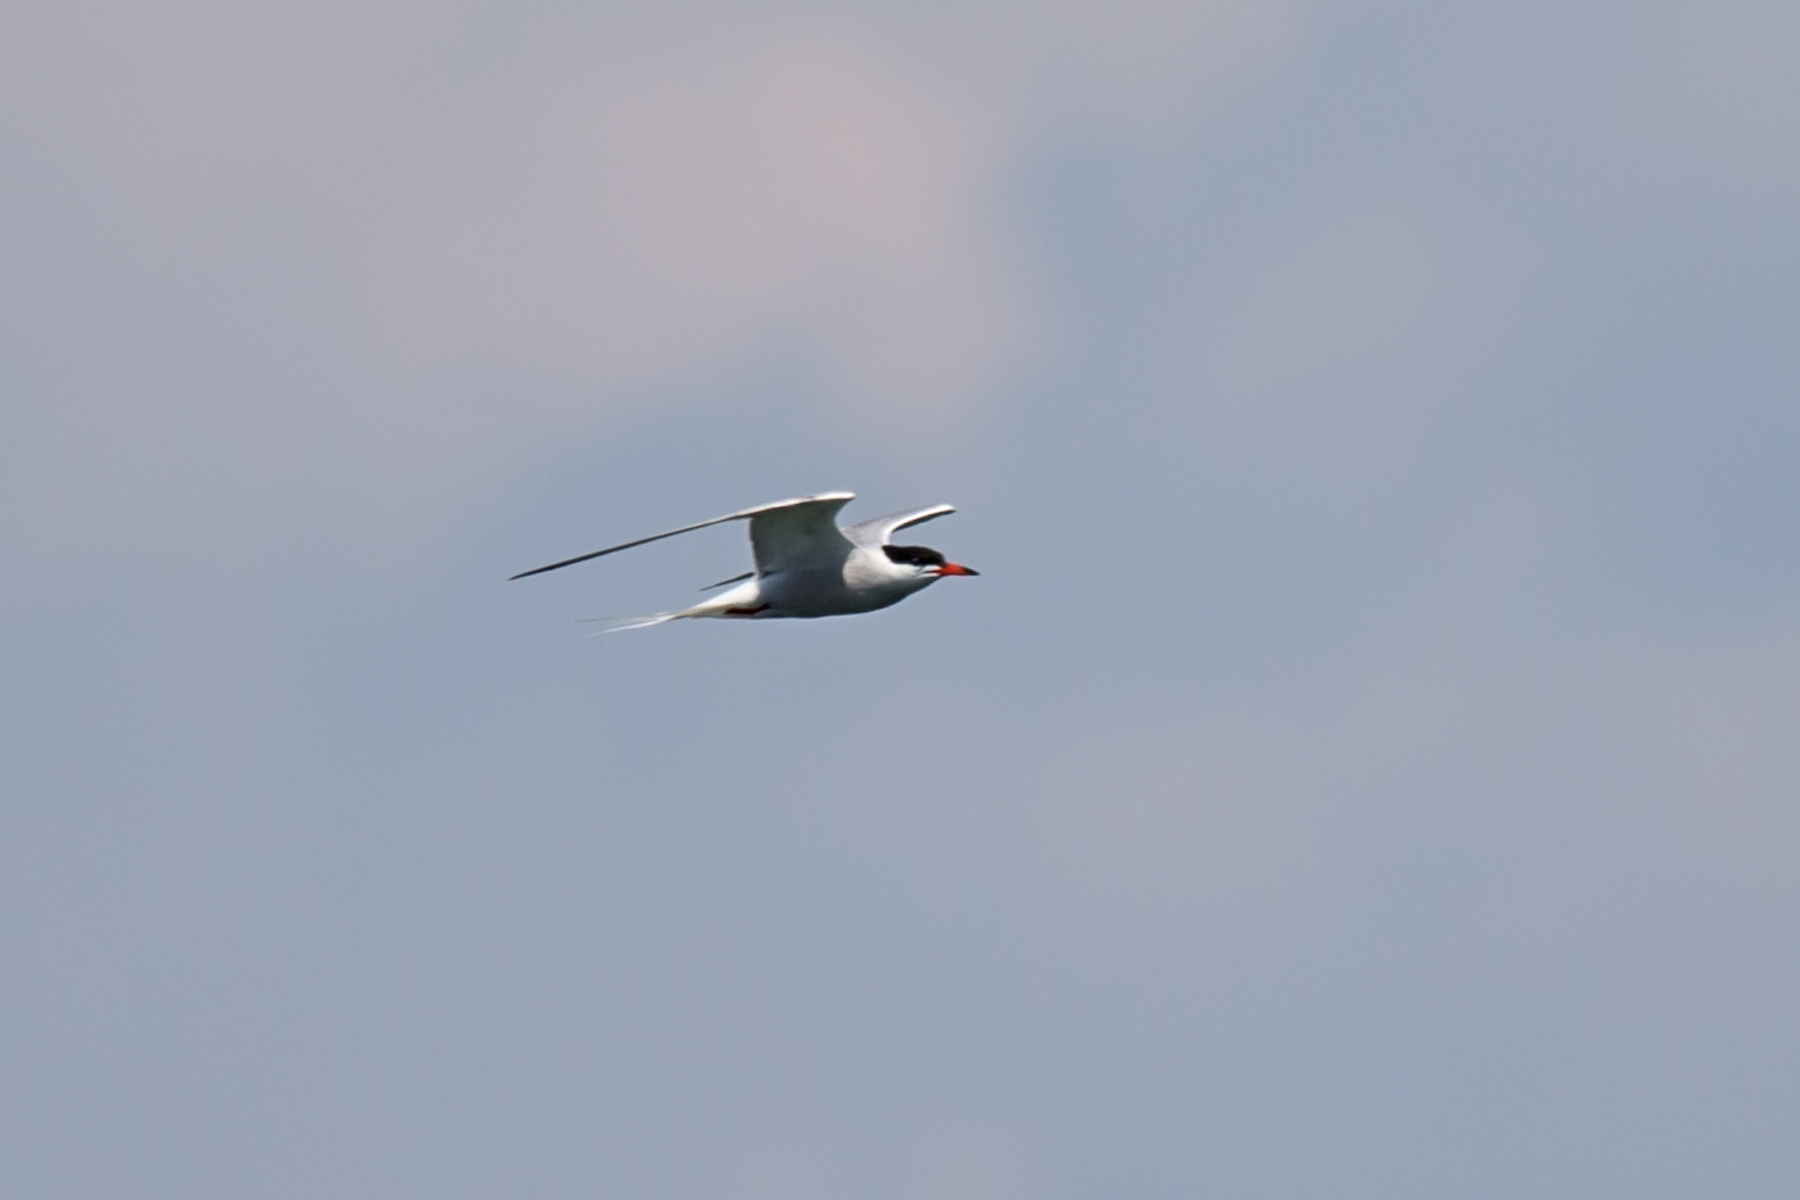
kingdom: Animalia
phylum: Chordata
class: Aves
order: Charadriiformes
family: Laridae
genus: Sterna
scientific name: Sterna hirundo
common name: Common tern
